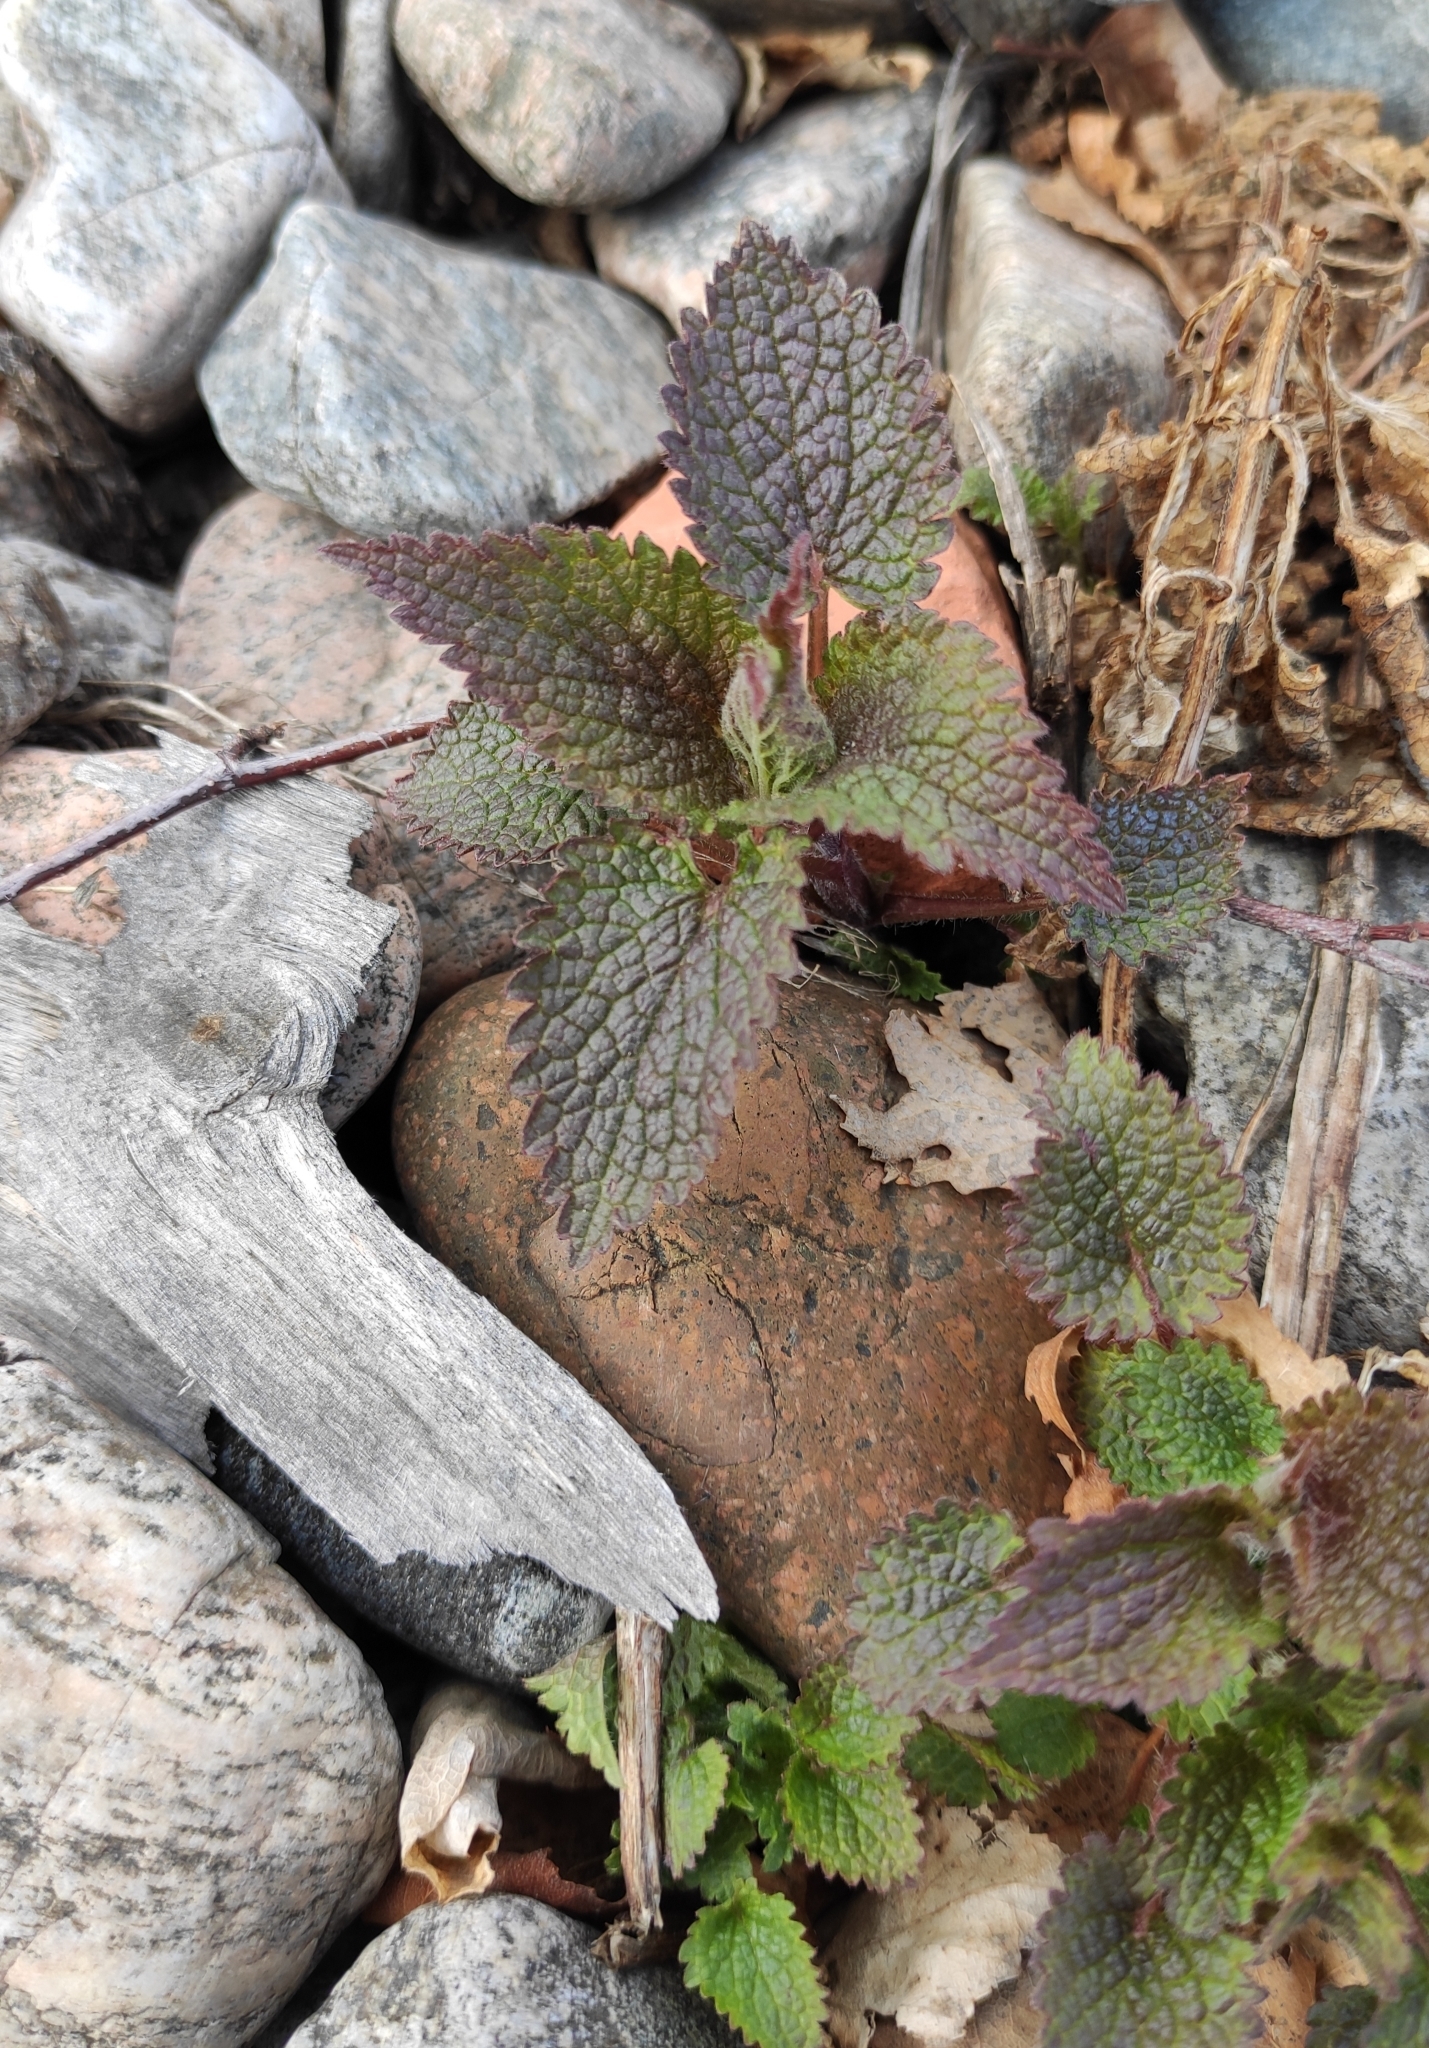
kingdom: Plantae
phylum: Tracheophyta
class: Magnoliopsida
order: Lamiales
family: Lamiaceae
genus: Lamium
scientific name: Lamium album
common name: White dead-nettle
